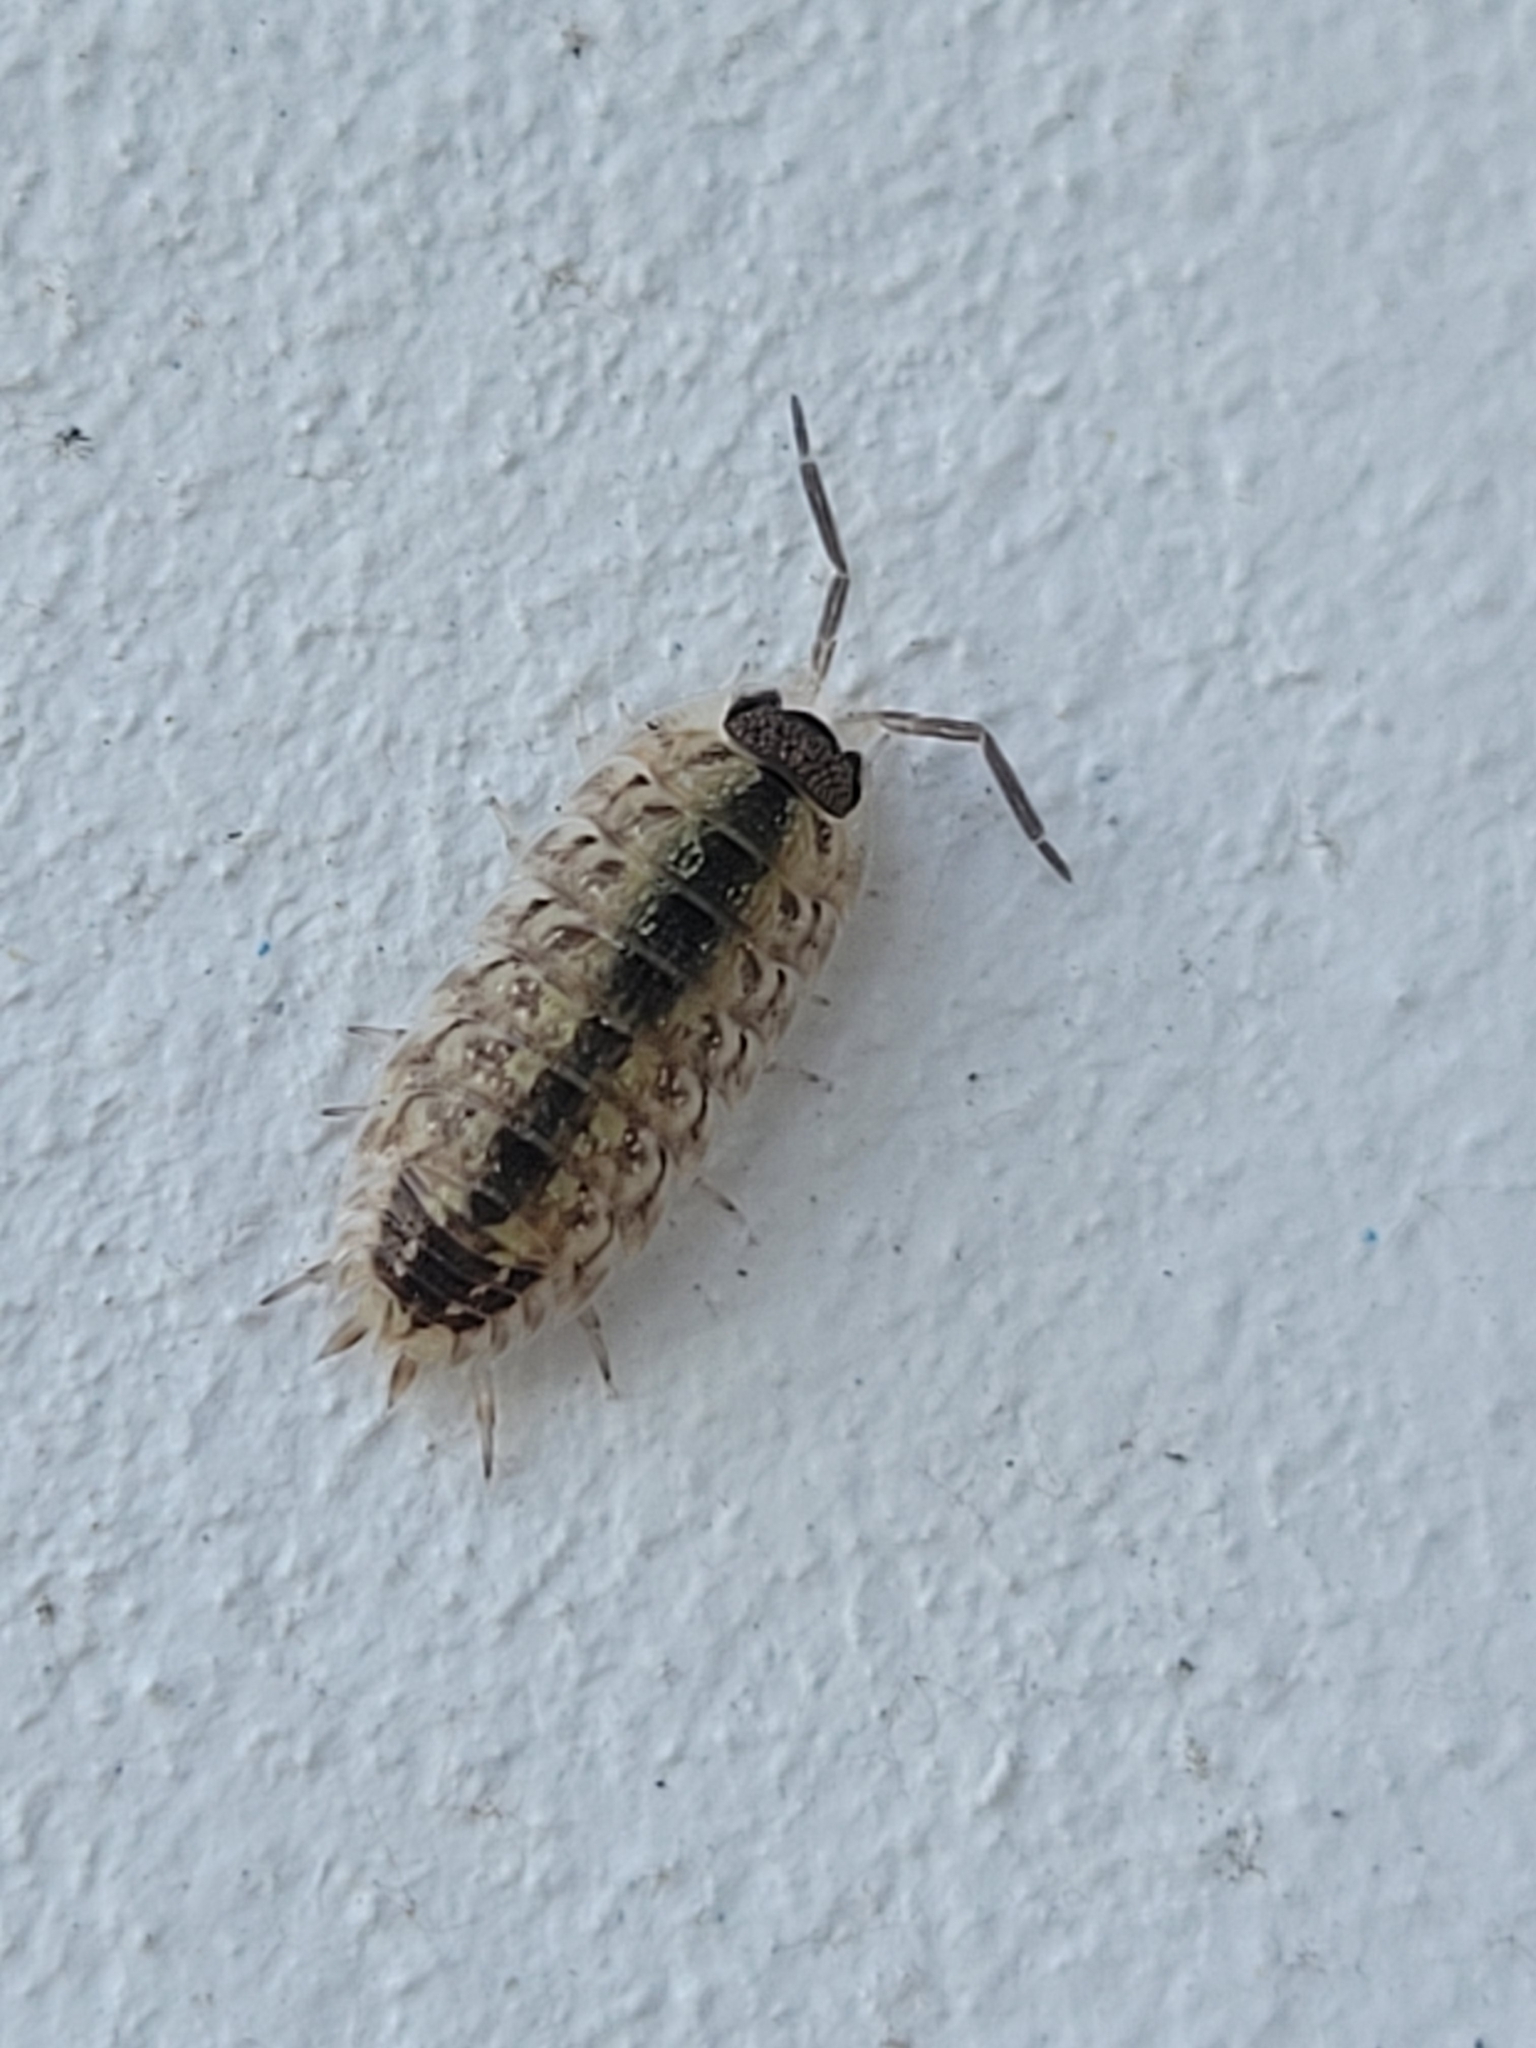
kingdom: Animalia
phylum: Arthropoda
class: Malacostraca
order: Isopoda
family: Porcellionidae
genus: Porcellio
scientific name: Porcellio spinicornis
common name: Painted woodlouse
